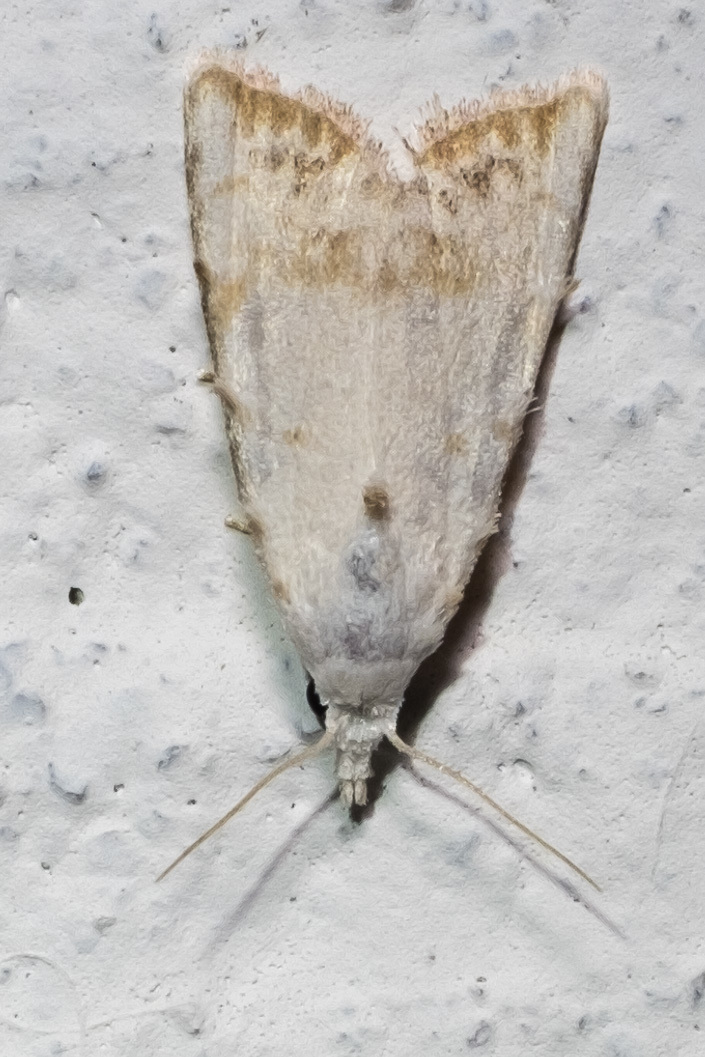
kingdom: Animalia
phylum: Arthropoda
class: Insecta
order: Lepidoptera
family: Nolidae
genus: Nola
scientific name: Nola cereella
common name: Sorghum webworm moth
